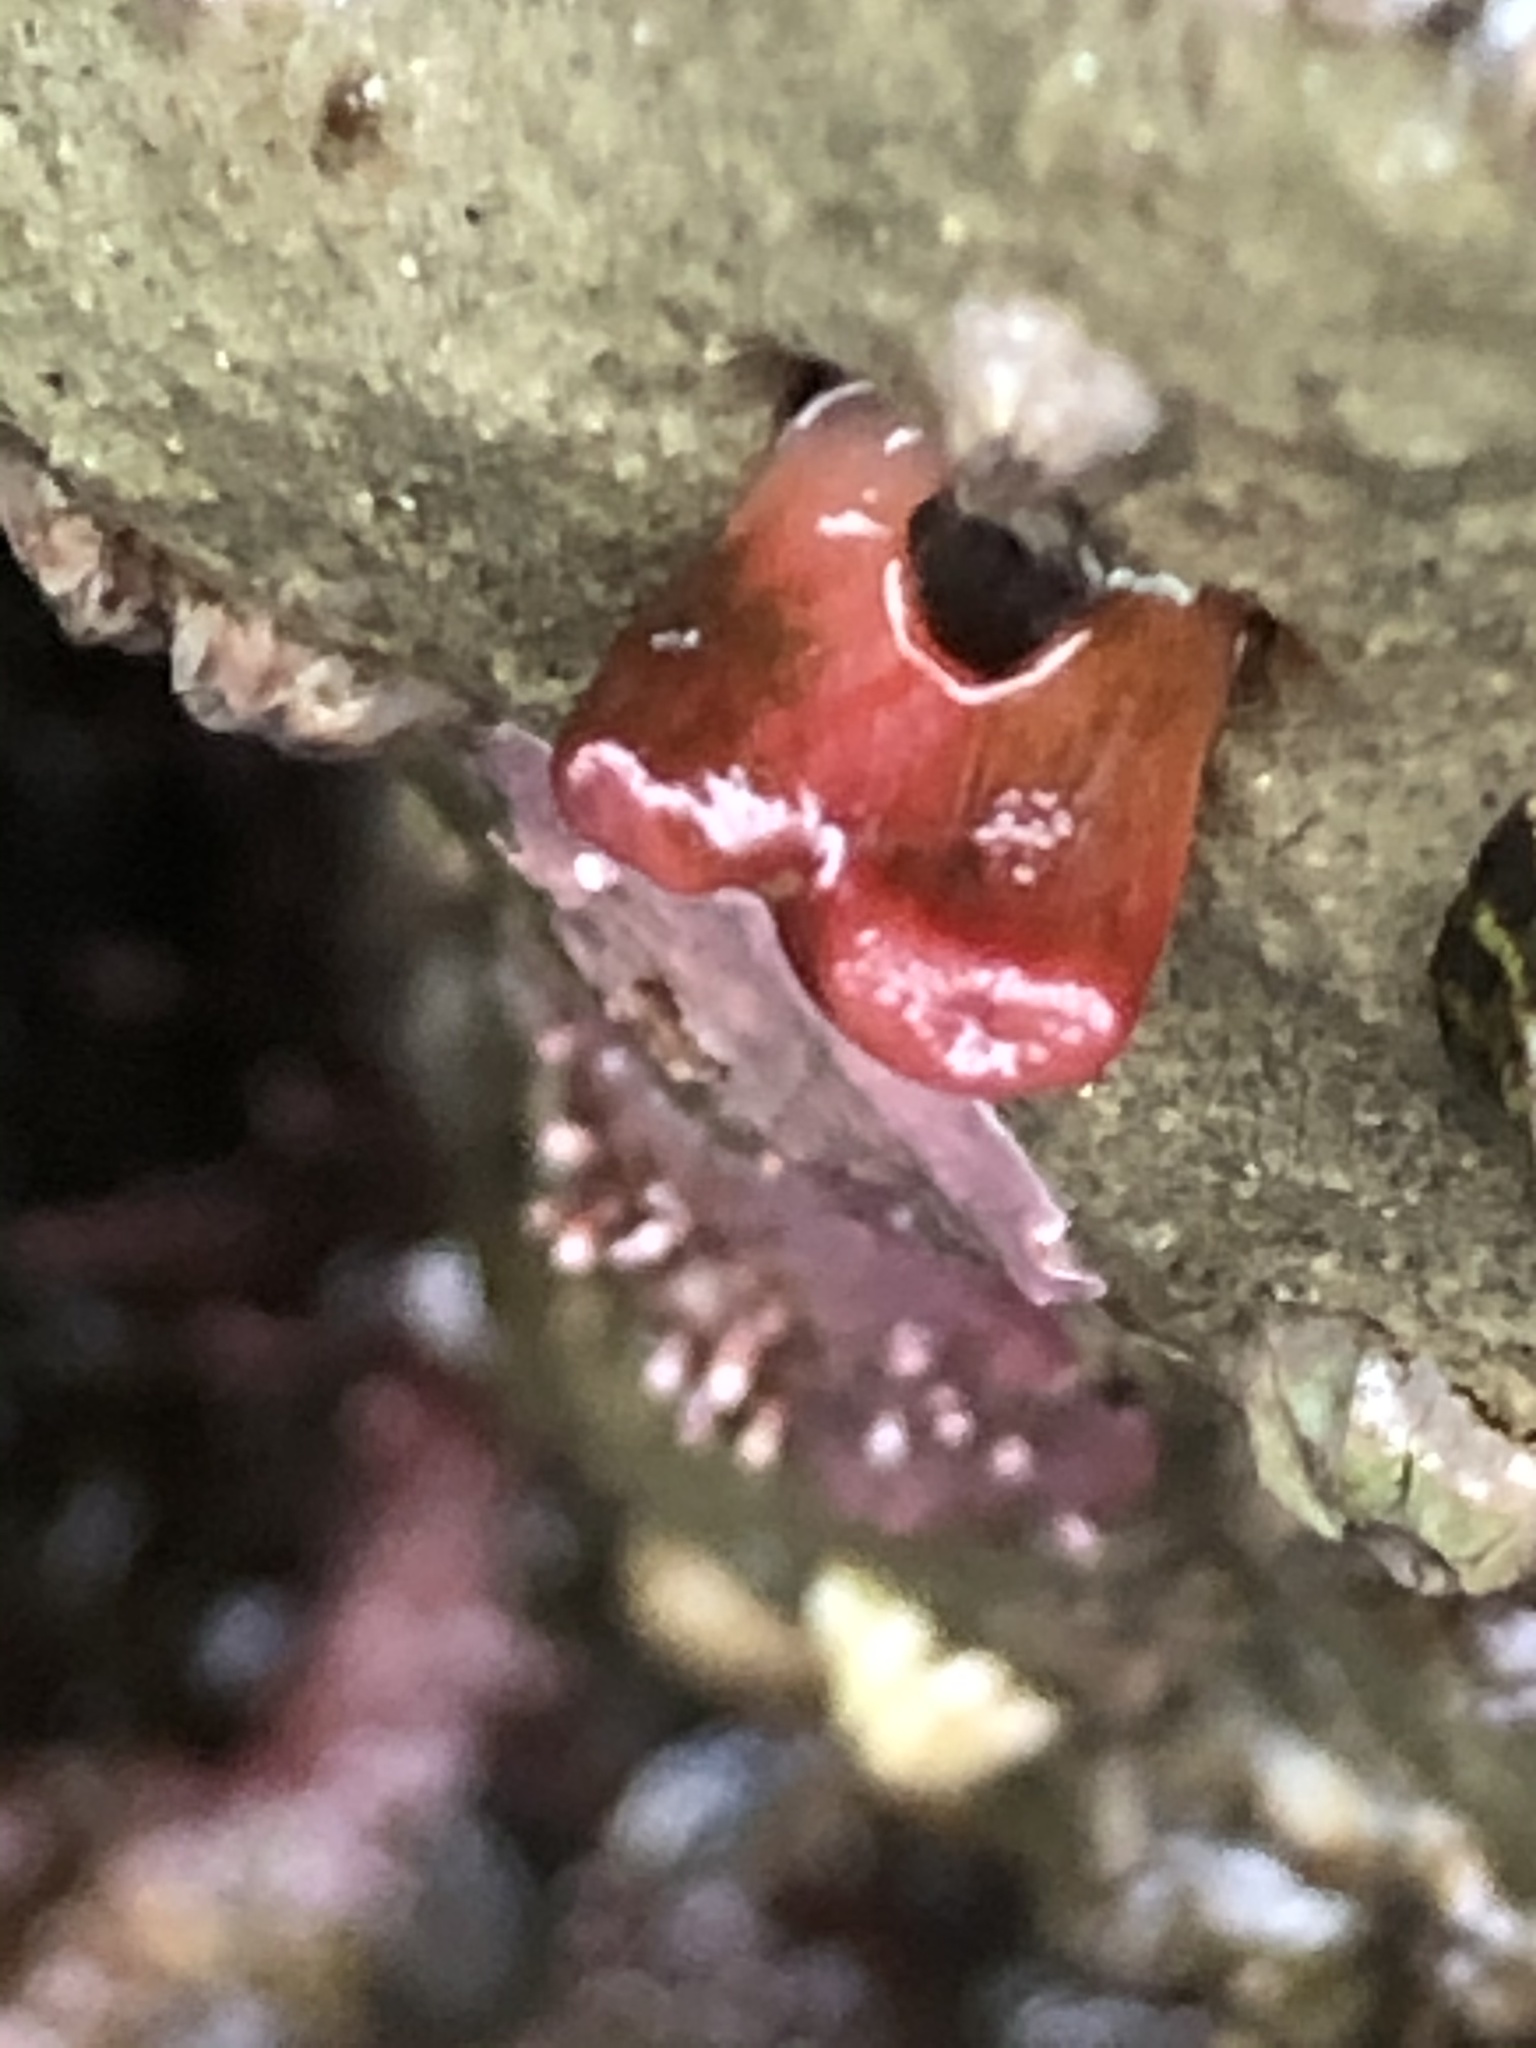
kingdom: Animalia
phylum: Mollusca
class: Bivalvia
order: Adapedonta
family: Hiatellidae
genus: Hiatella
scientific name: Hiatella arctica
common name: Arctic hiatella
